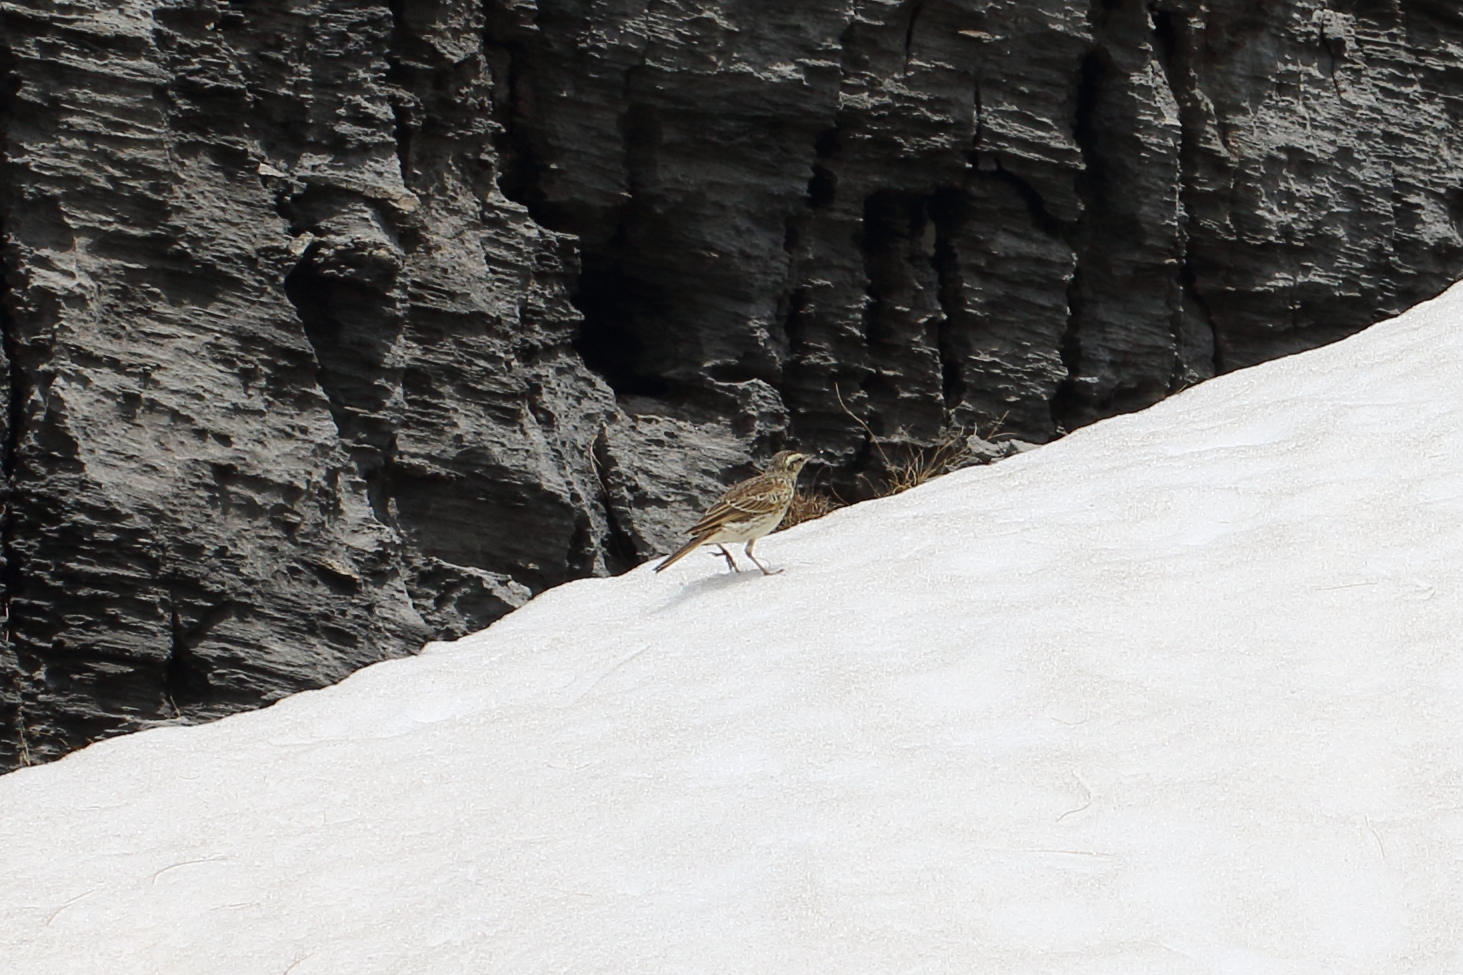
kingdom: Animalia
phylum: Chordata
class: Aves
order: Passeriformes
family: Motacillidae
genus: Anthus
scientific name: Anthus novaeseelandiae
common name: New zealand pipit
